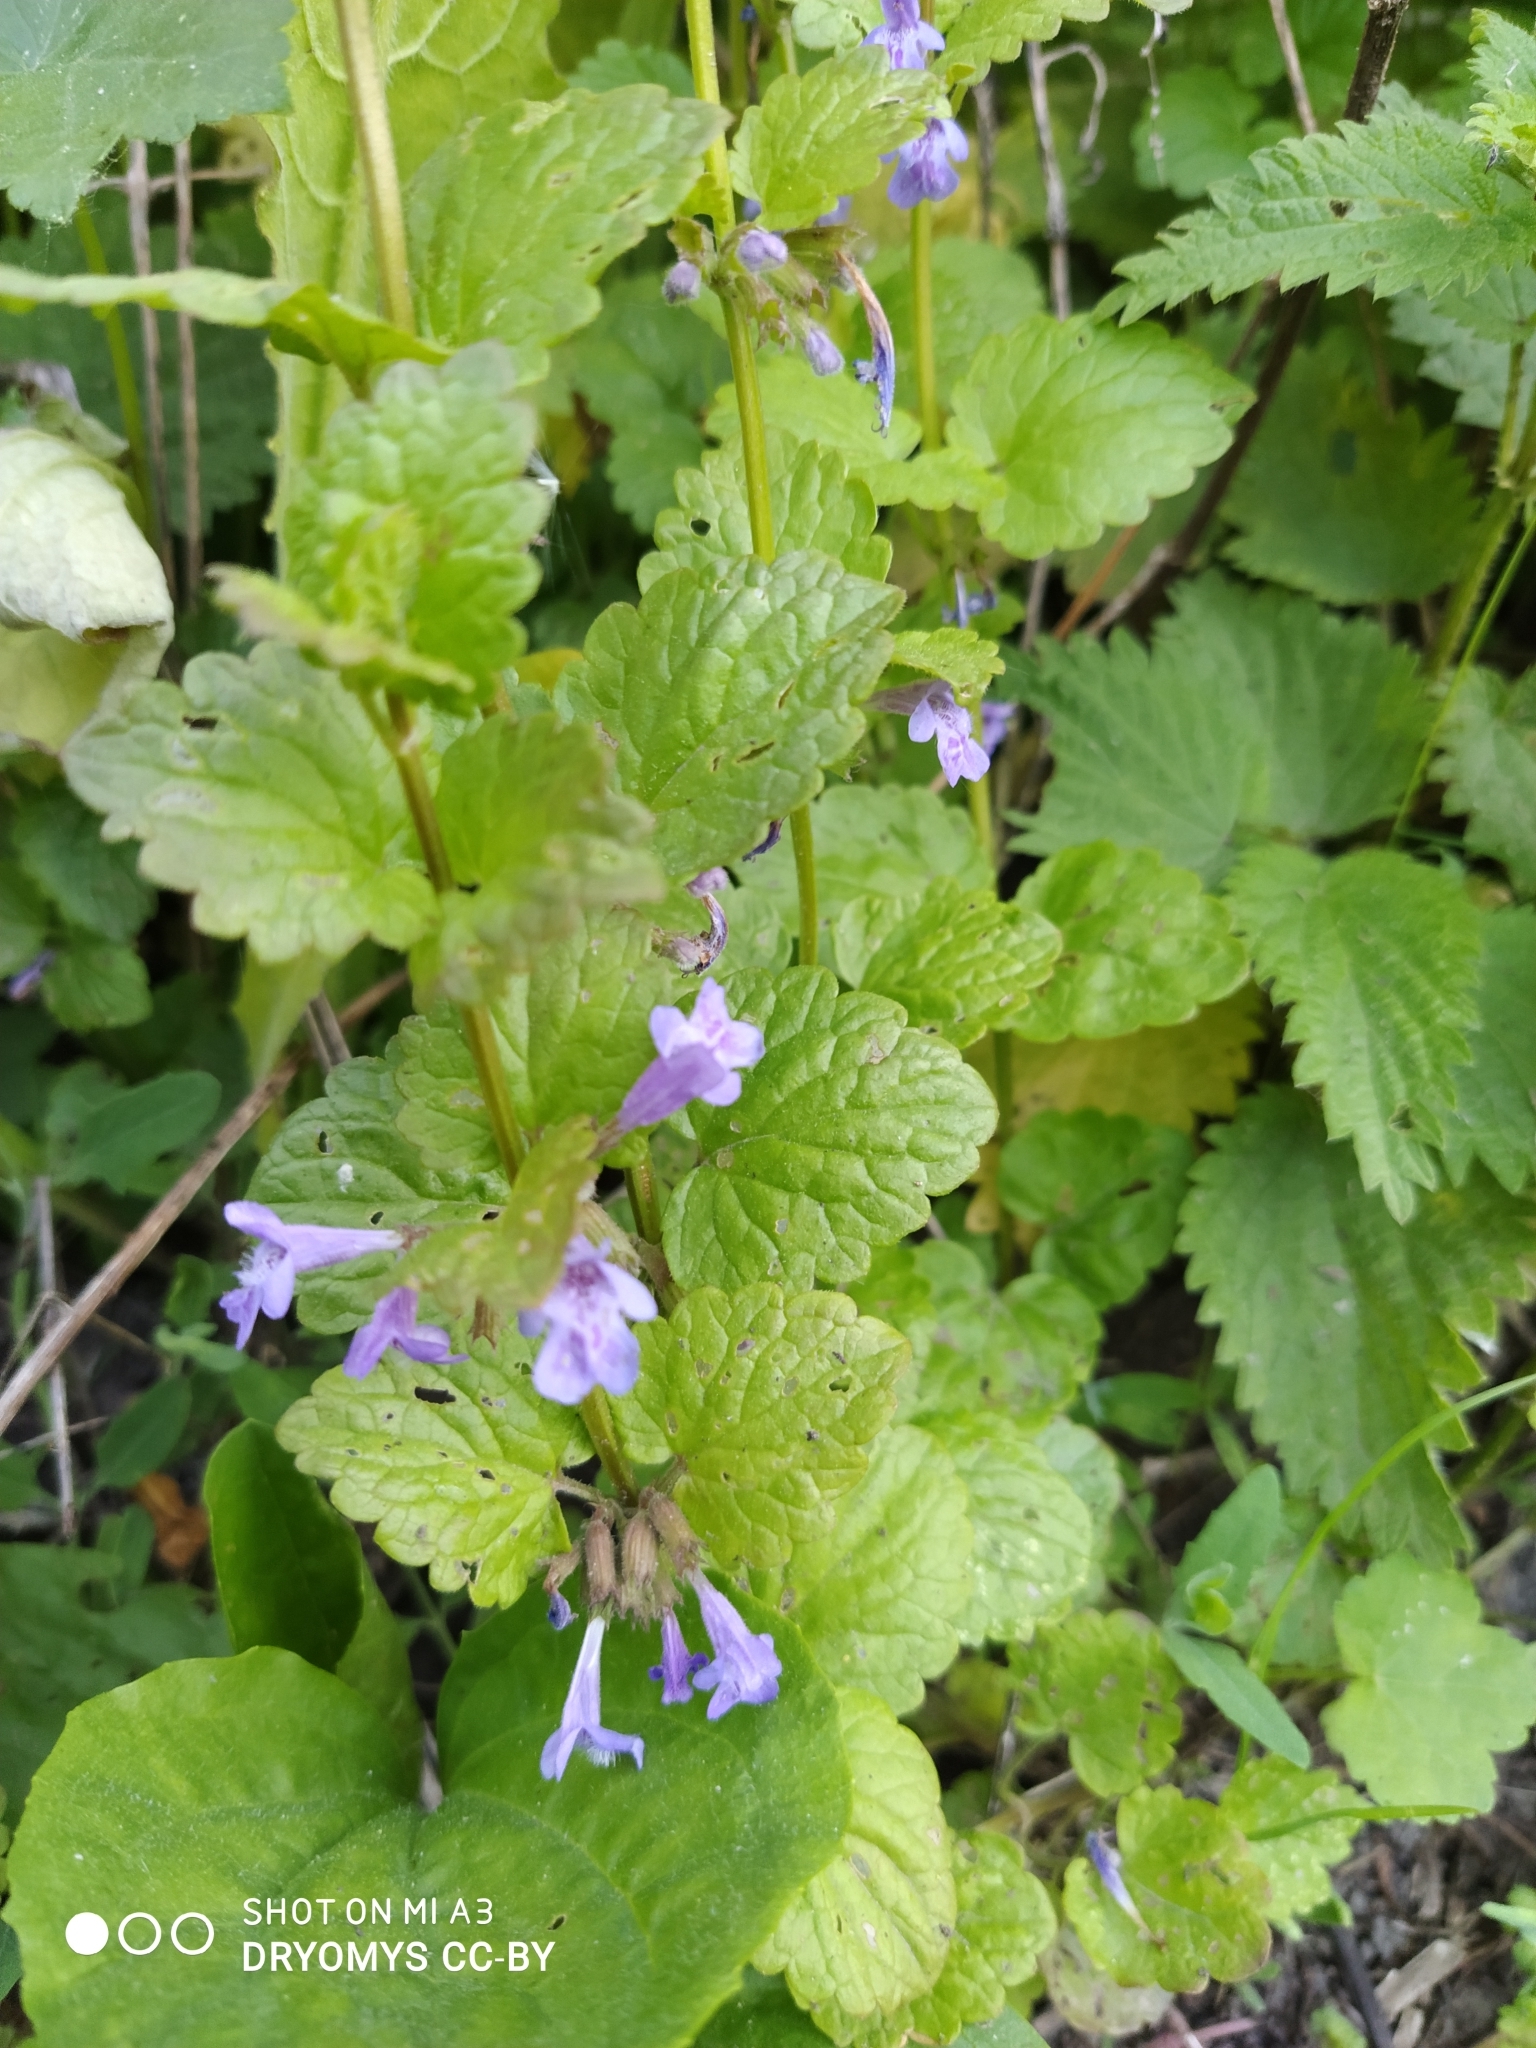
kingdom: Plantae
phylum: Tracheophyta
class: Magnoliopsida
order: Lamiales
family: Lamiaceae
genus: Glechoma
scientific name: Glechoma hederacea
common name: Ground ivy
